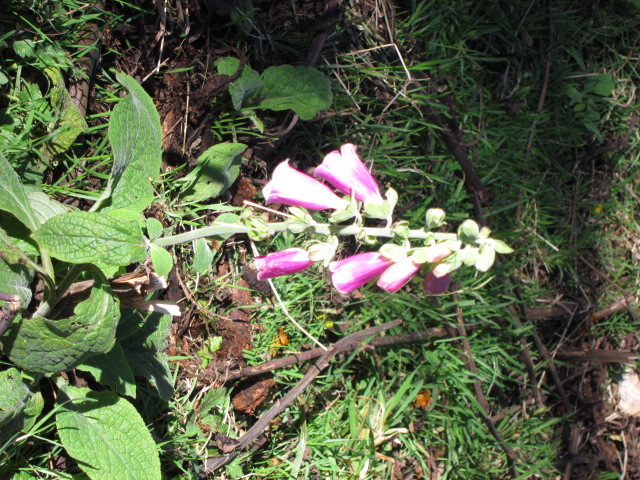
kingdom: Plantae
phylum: Tracheophyta
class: Magnoliopsida
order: Lamiales
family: Plantaginaceae
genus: Digitalis
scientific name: Digitalis purpurea
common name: Foxglove
